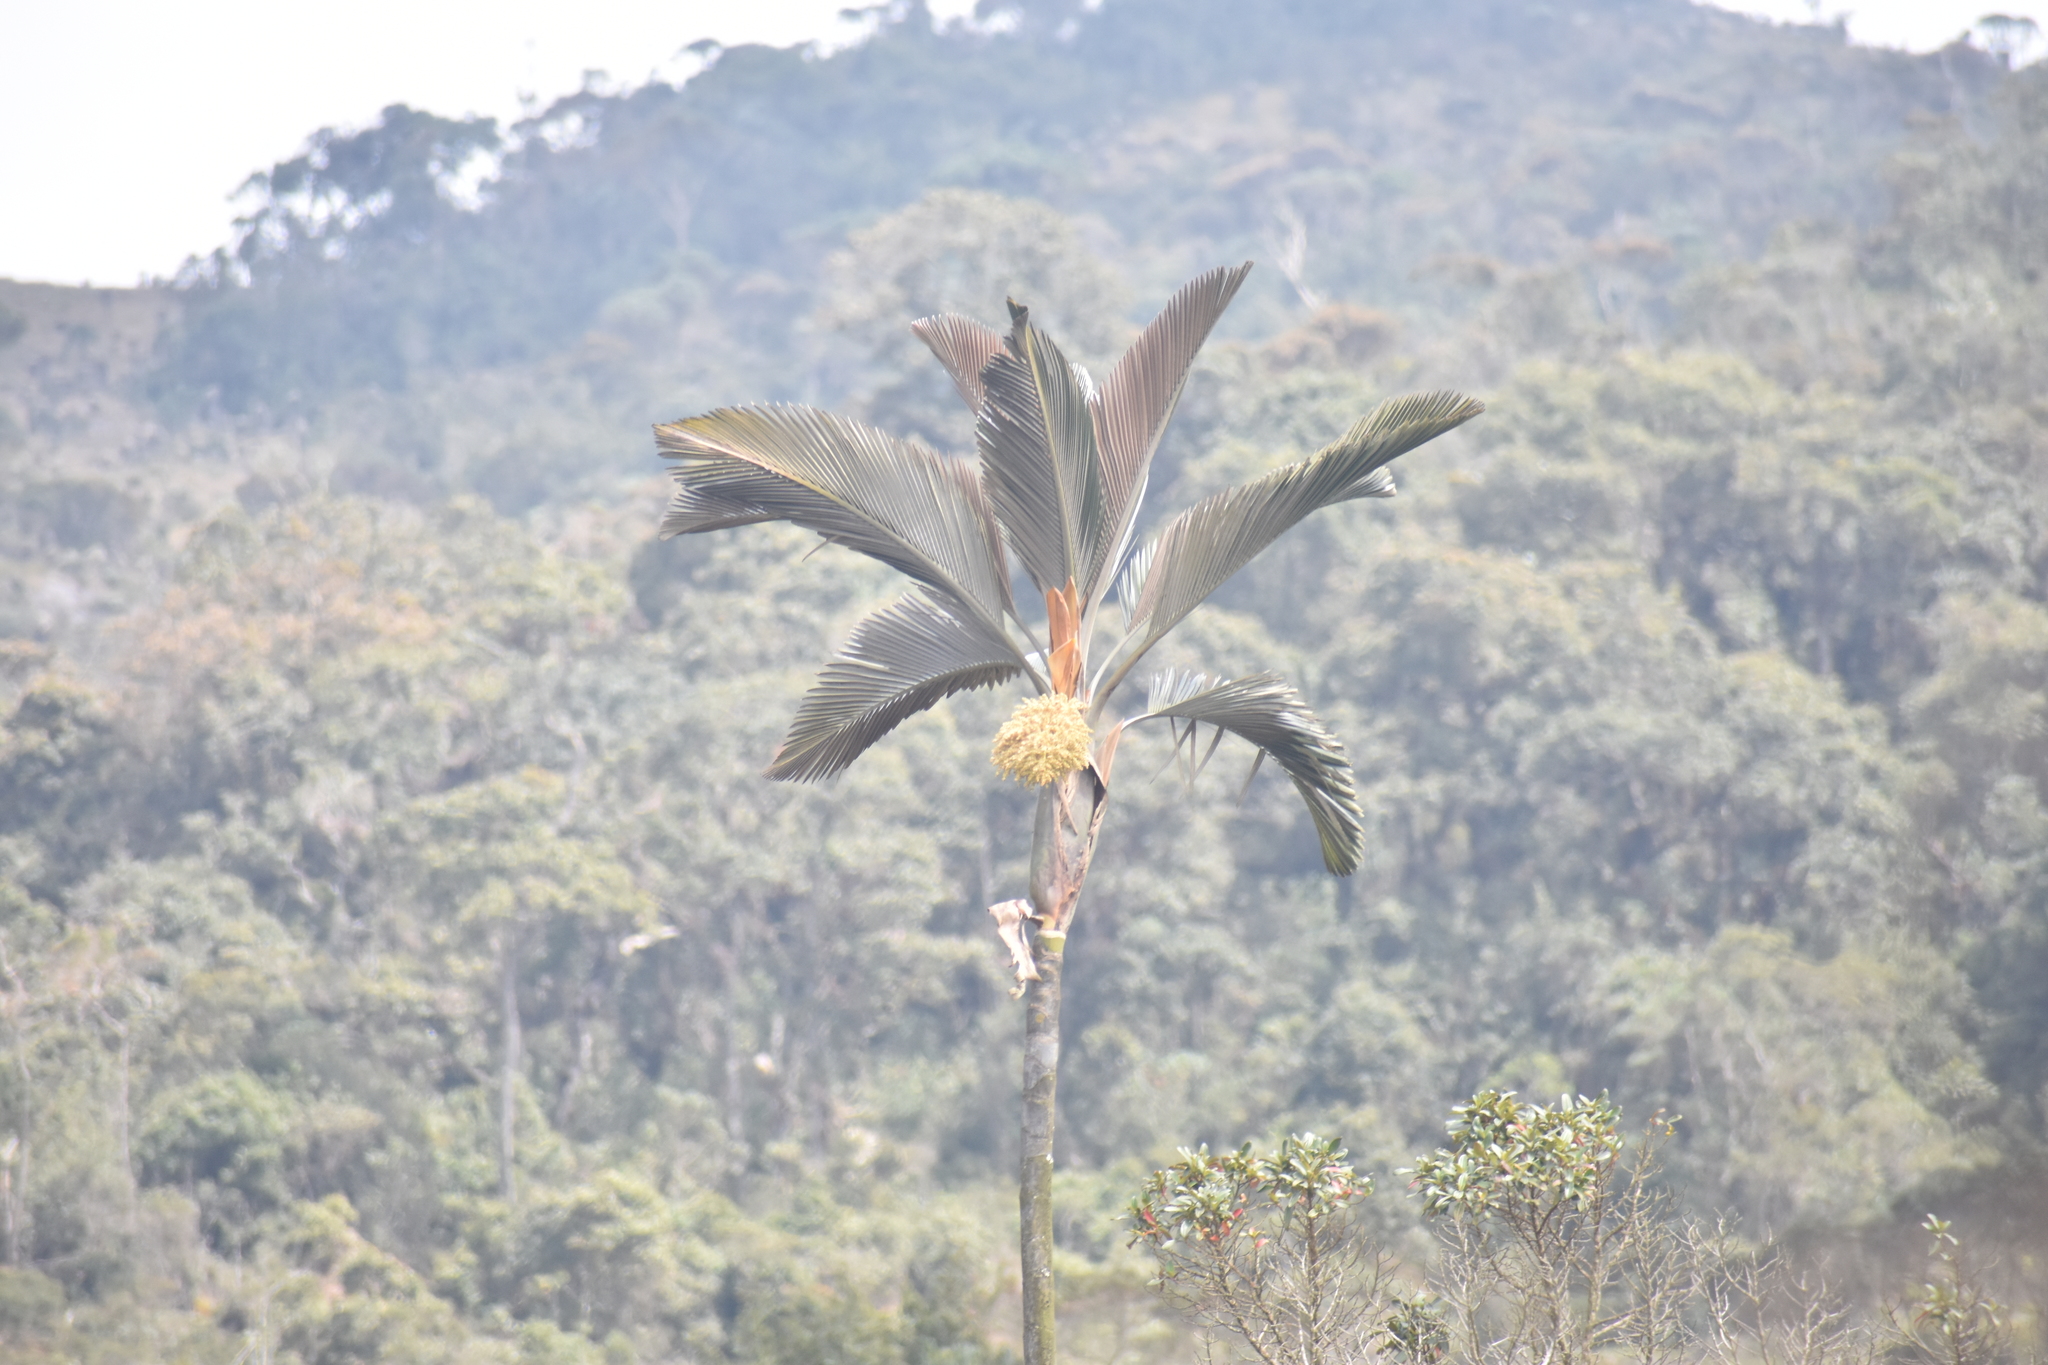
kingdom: Plantae
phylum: Tracheophyta
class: Liliopsida
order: Arecales
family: Arecaceae
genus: Ceroxylon
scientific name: Ceroxylon parvifrons
